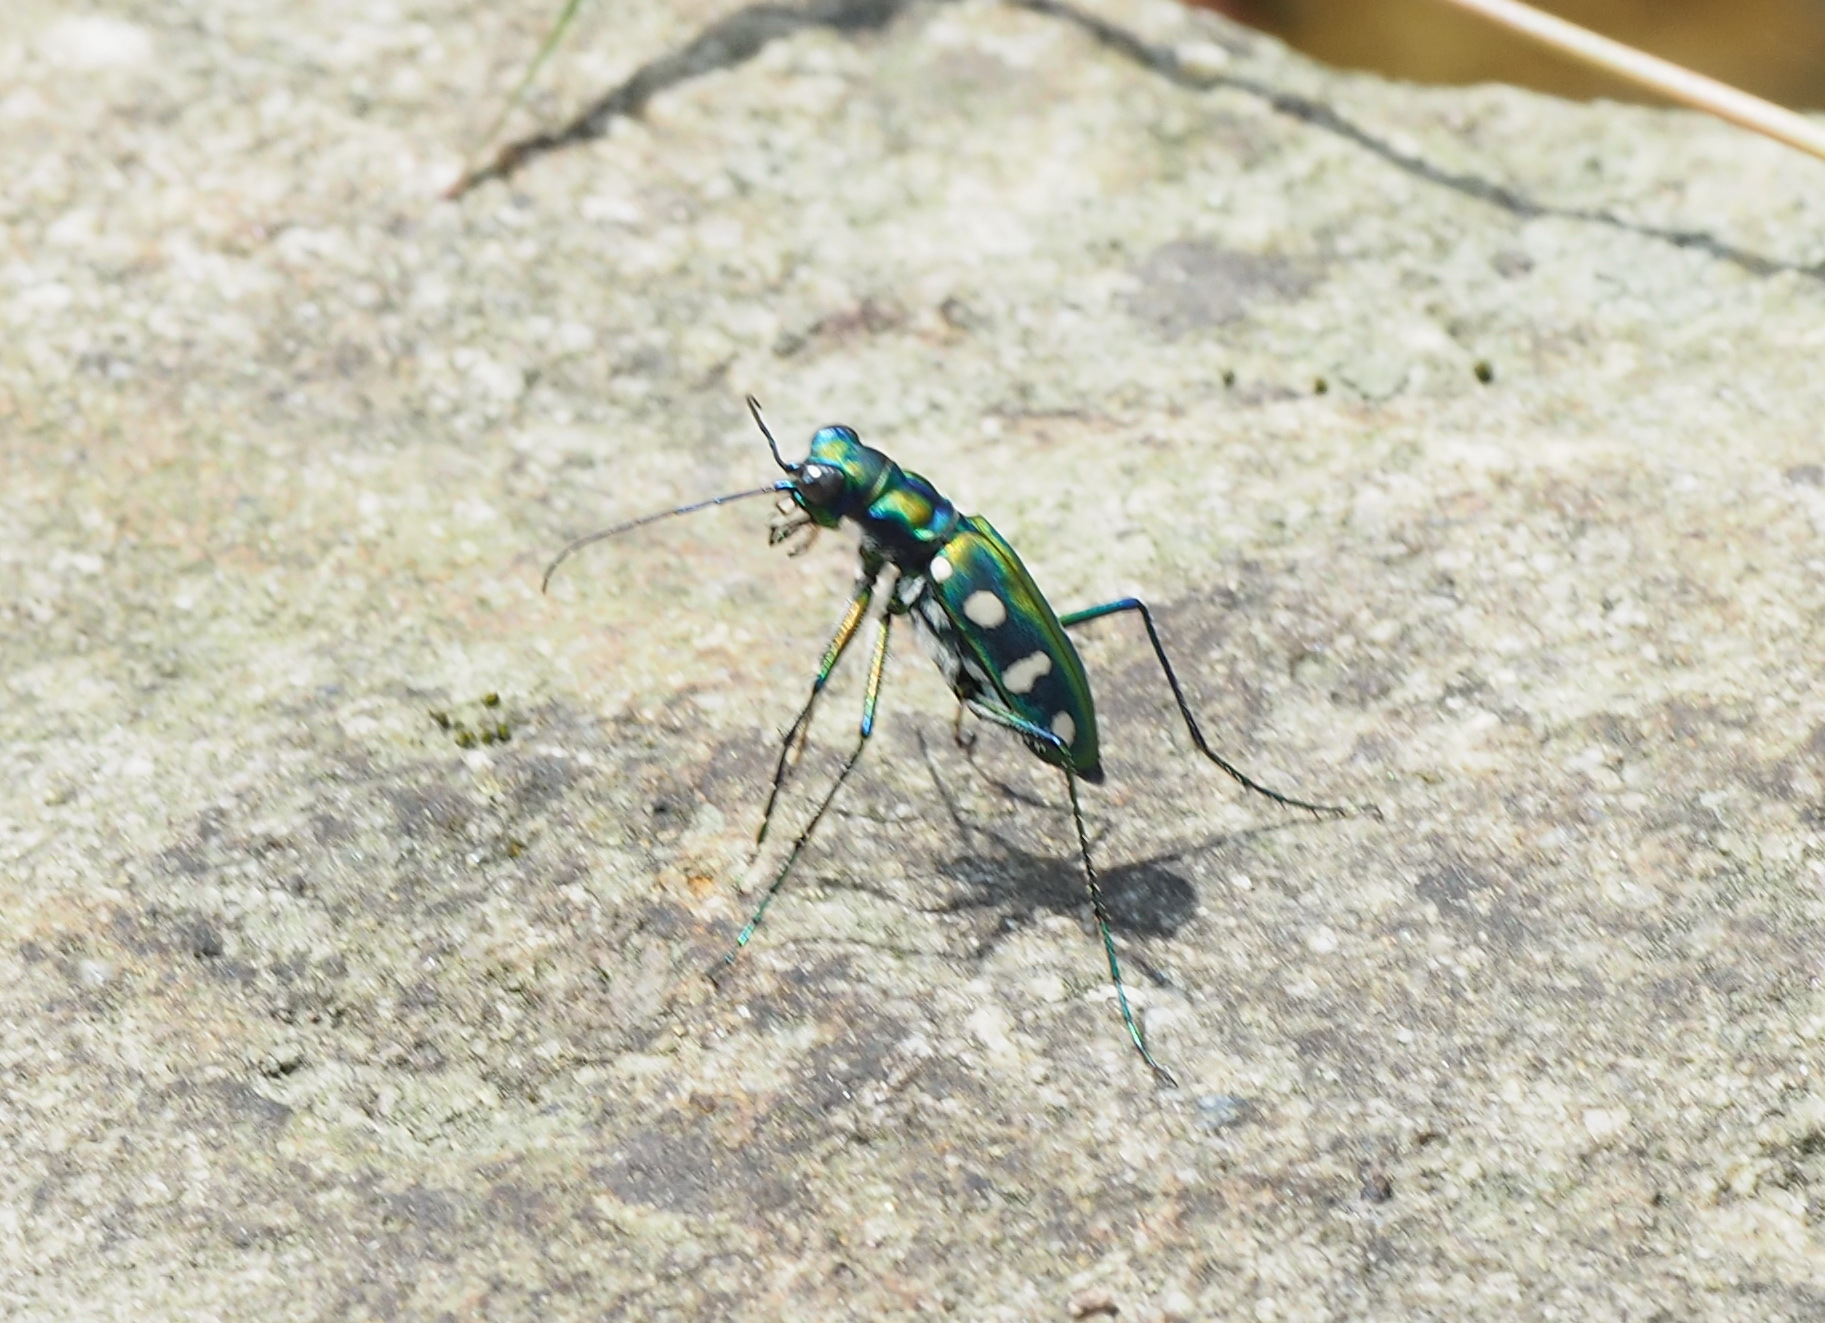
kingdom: Animalia
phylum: Arthropoda
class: Insecta
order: Coleoptera
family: Carabidae
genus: Cicindela
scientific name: Cicindela batesi
